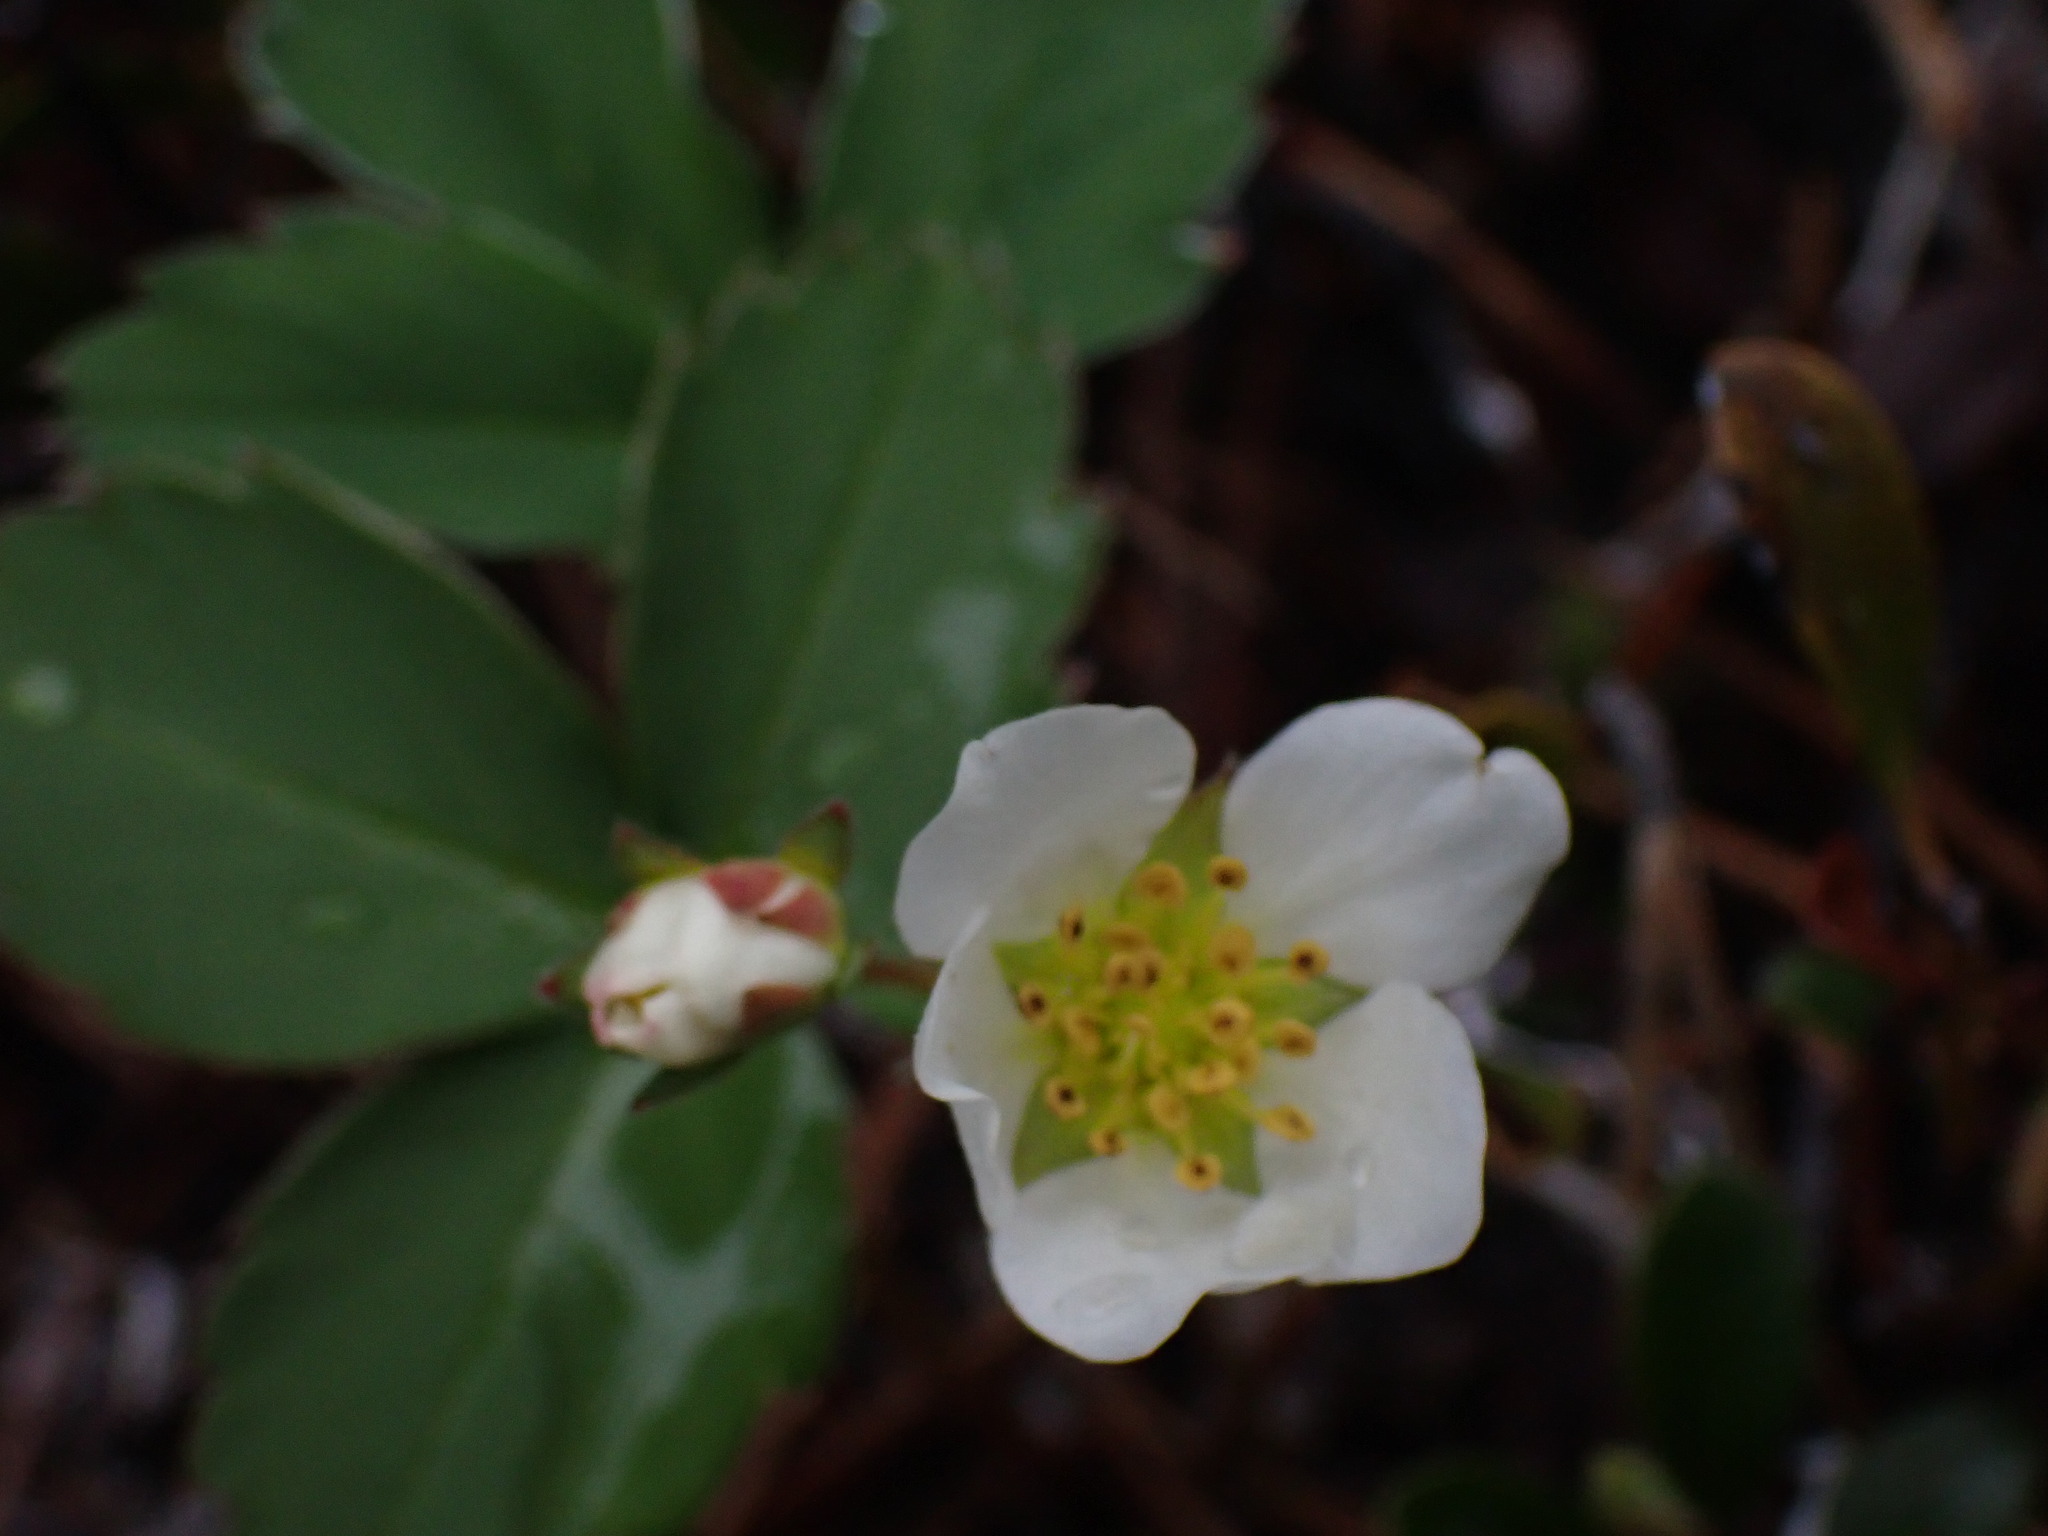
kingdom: Plantae
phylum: Tracheophyta
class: Magnoliopsida
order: Rosales
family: Rosaceae
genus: Fragaria
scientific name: Fragaria virginiana
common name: Thickleaved wild strawberry
